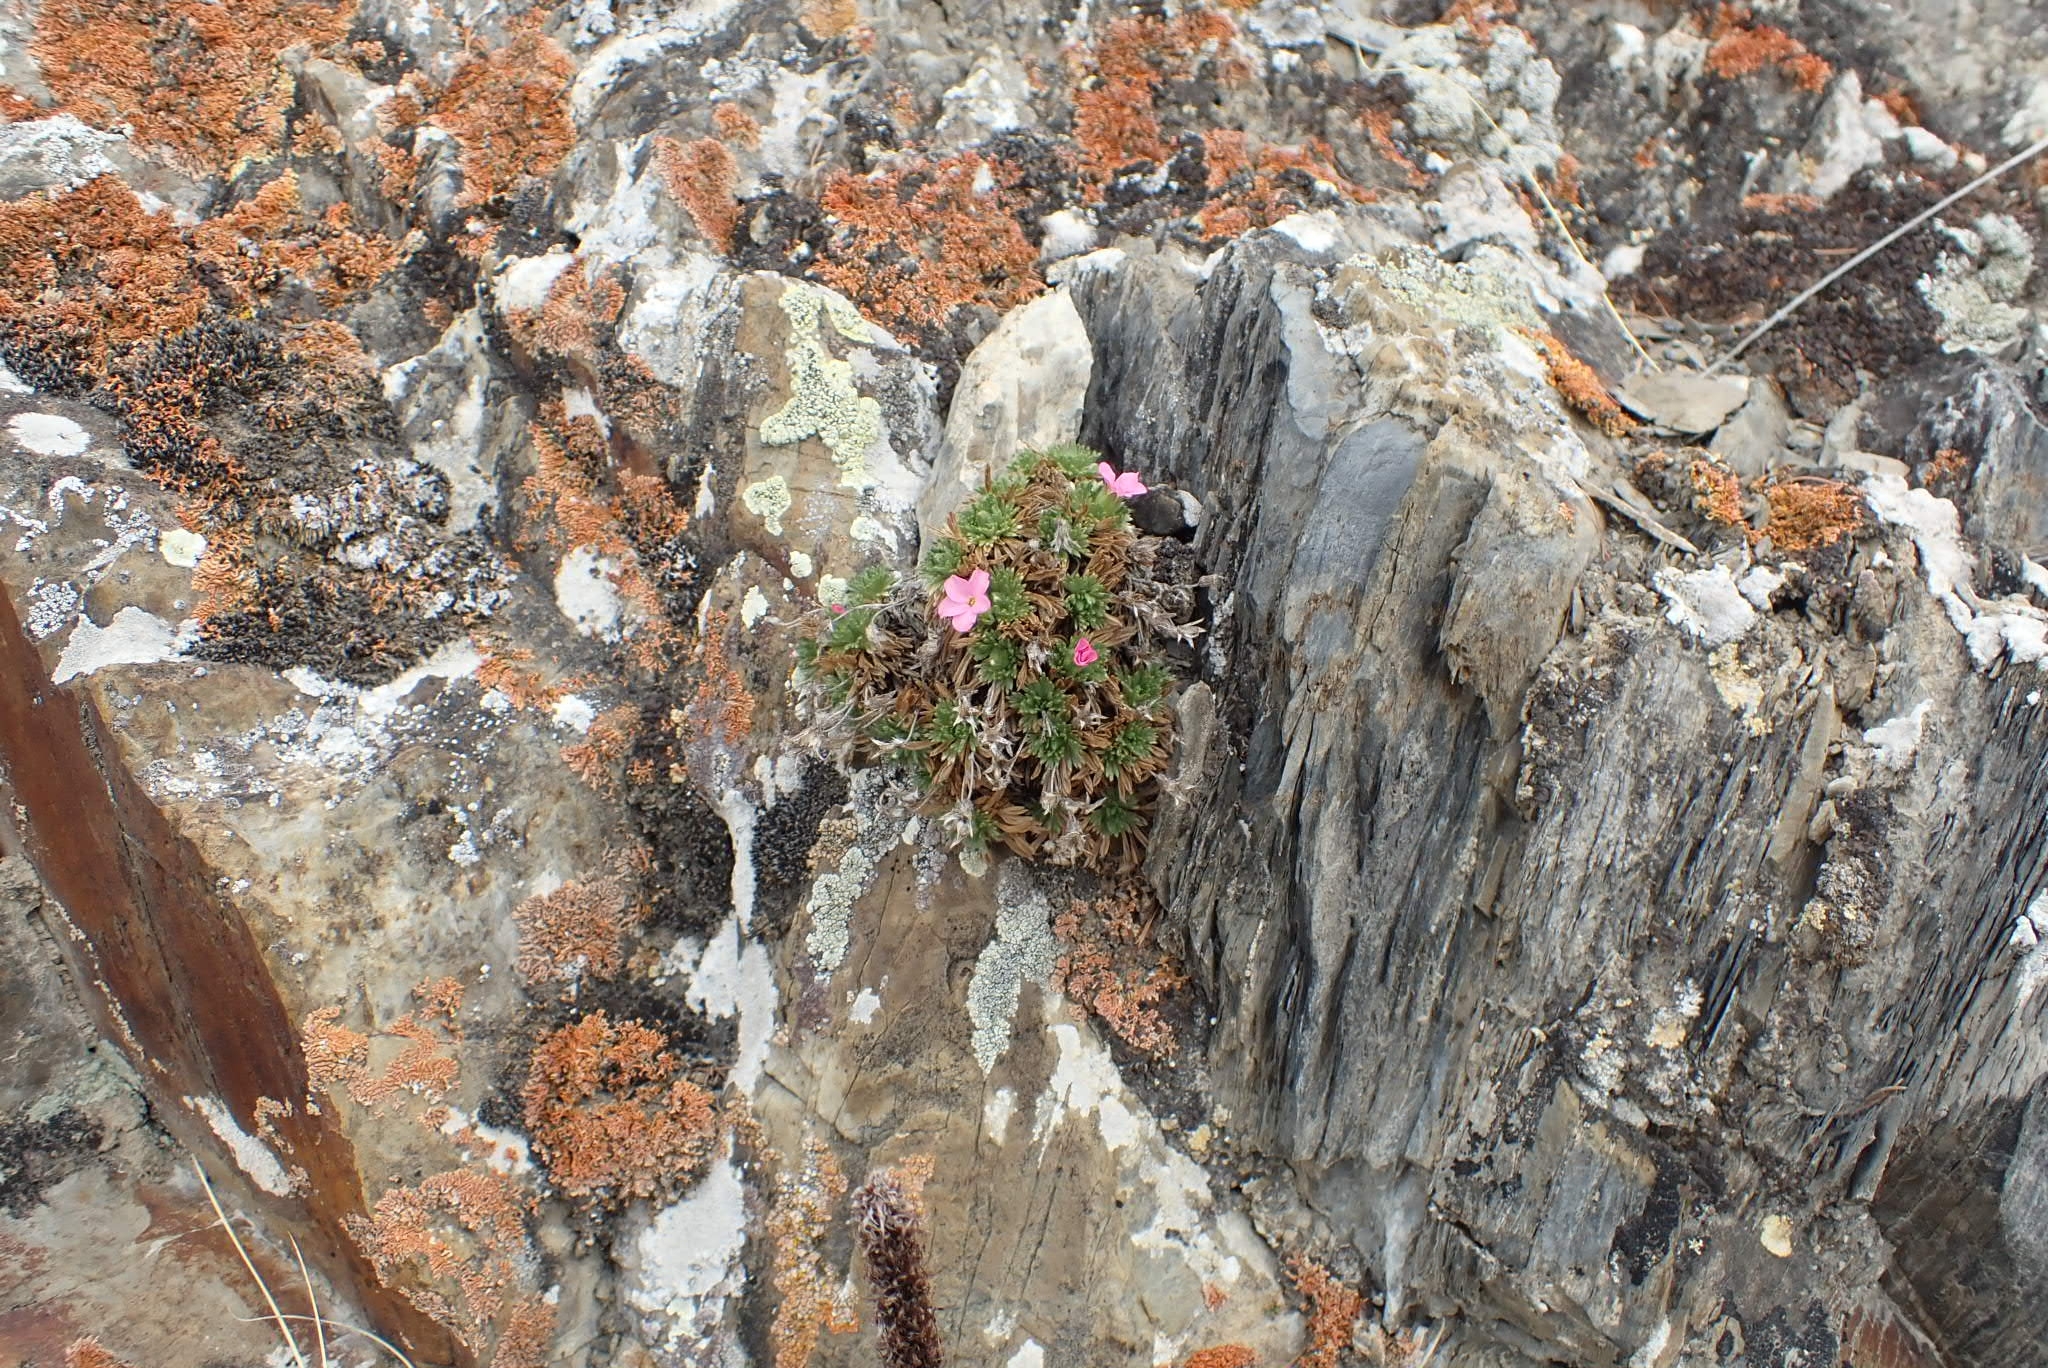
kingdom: Plantae
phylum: Tracheophyta
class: Magnoliopsida
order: Rosales
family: Rosaceae
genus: Chamaerhodos
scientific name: Chamaerhodos altaica
